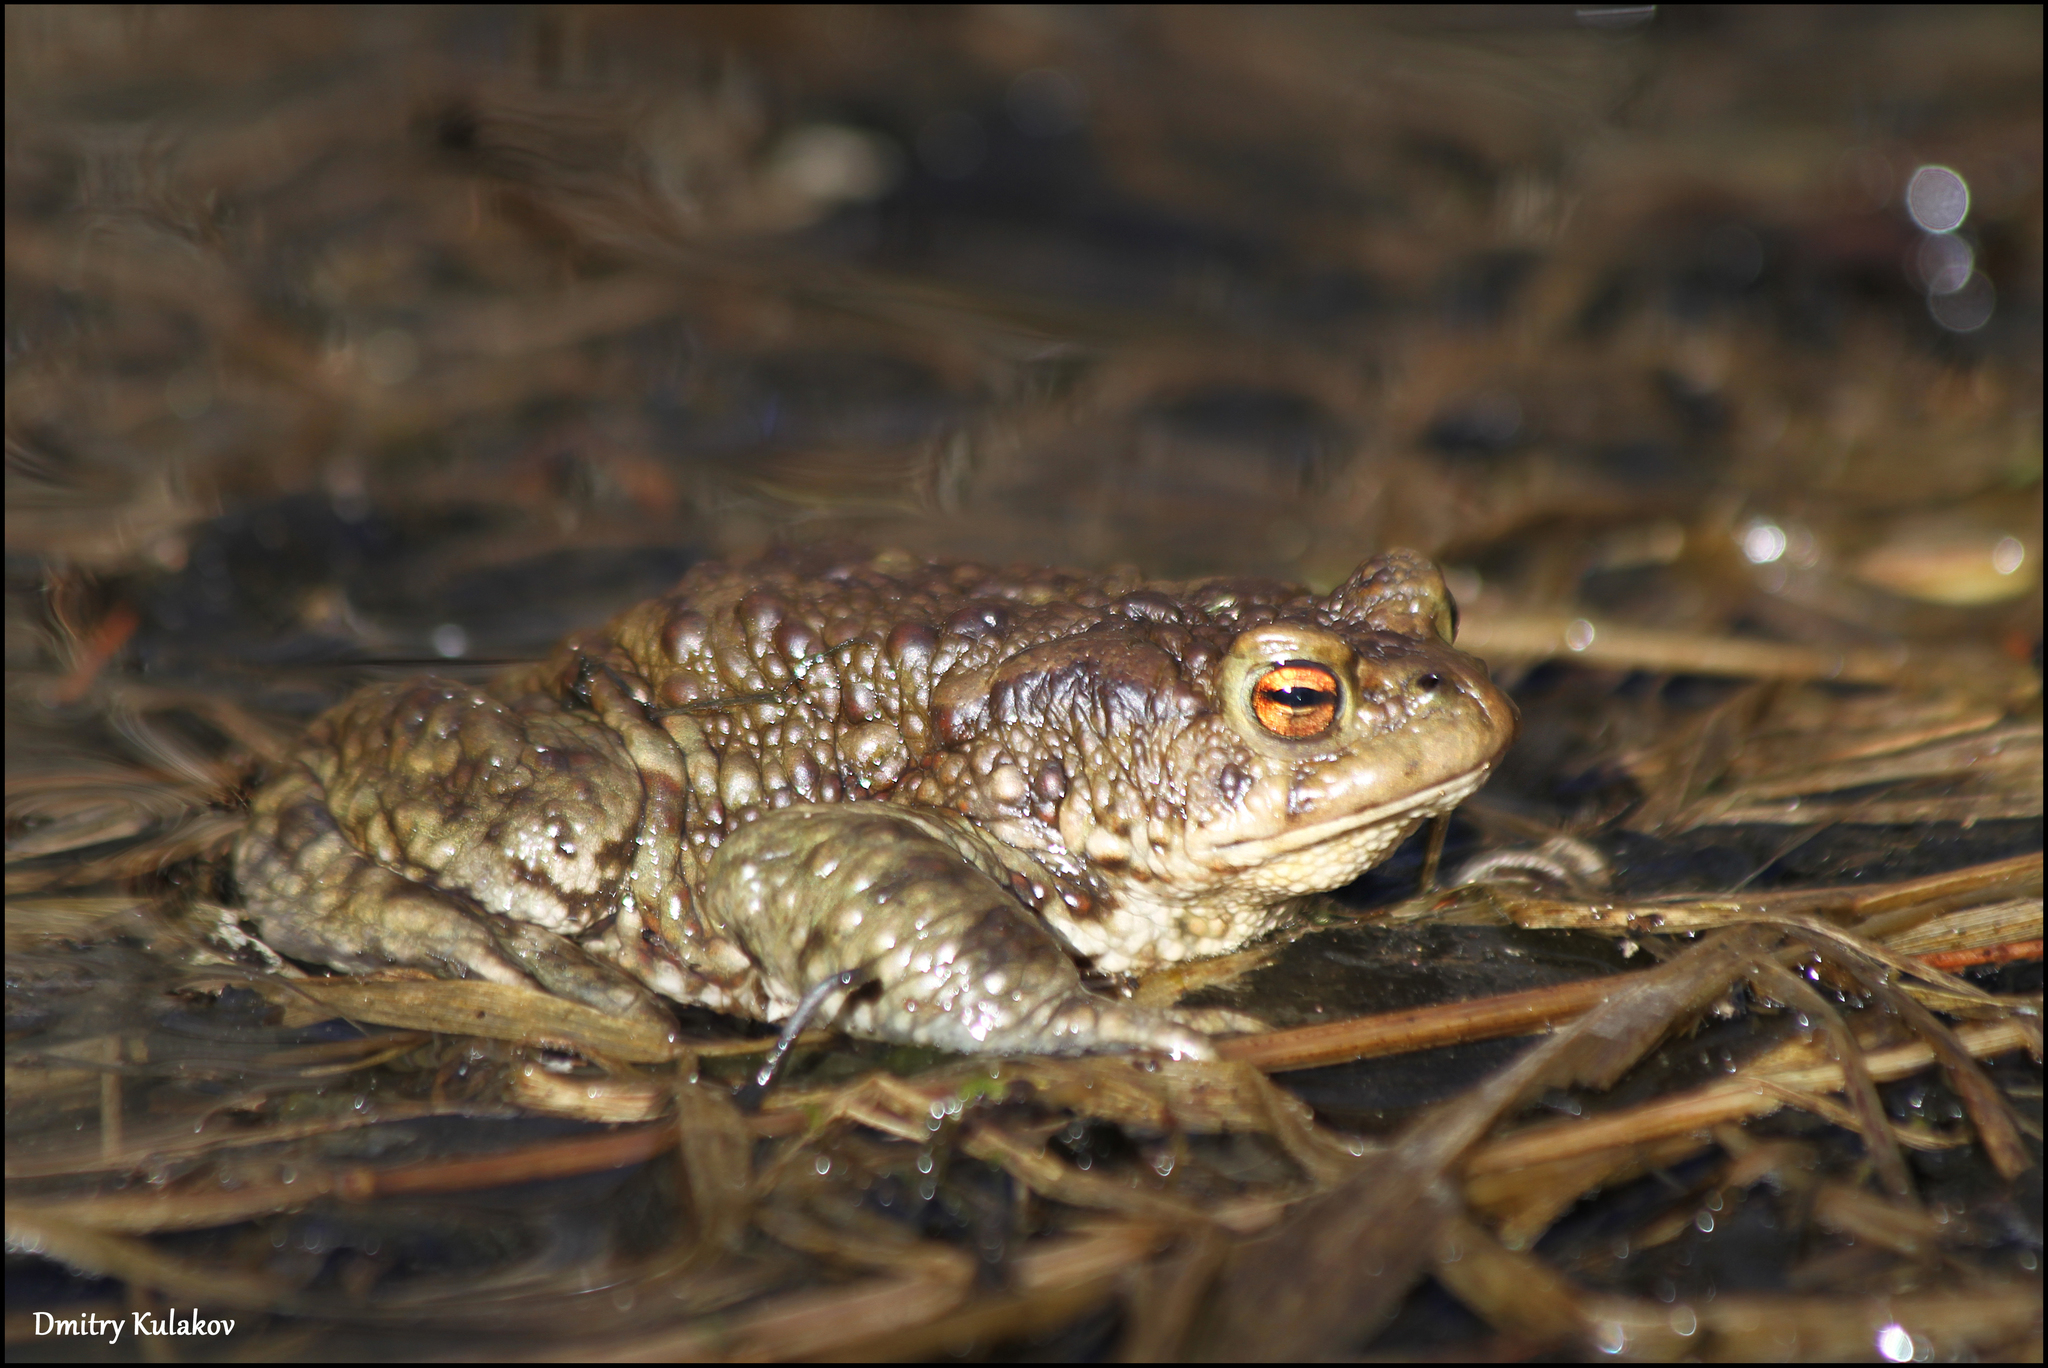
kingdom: Animalia
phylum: Chordata
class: Amphibia
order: Anura
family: Bufonidae
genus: Bufo
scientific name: Bufo bufo
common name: Common toad
